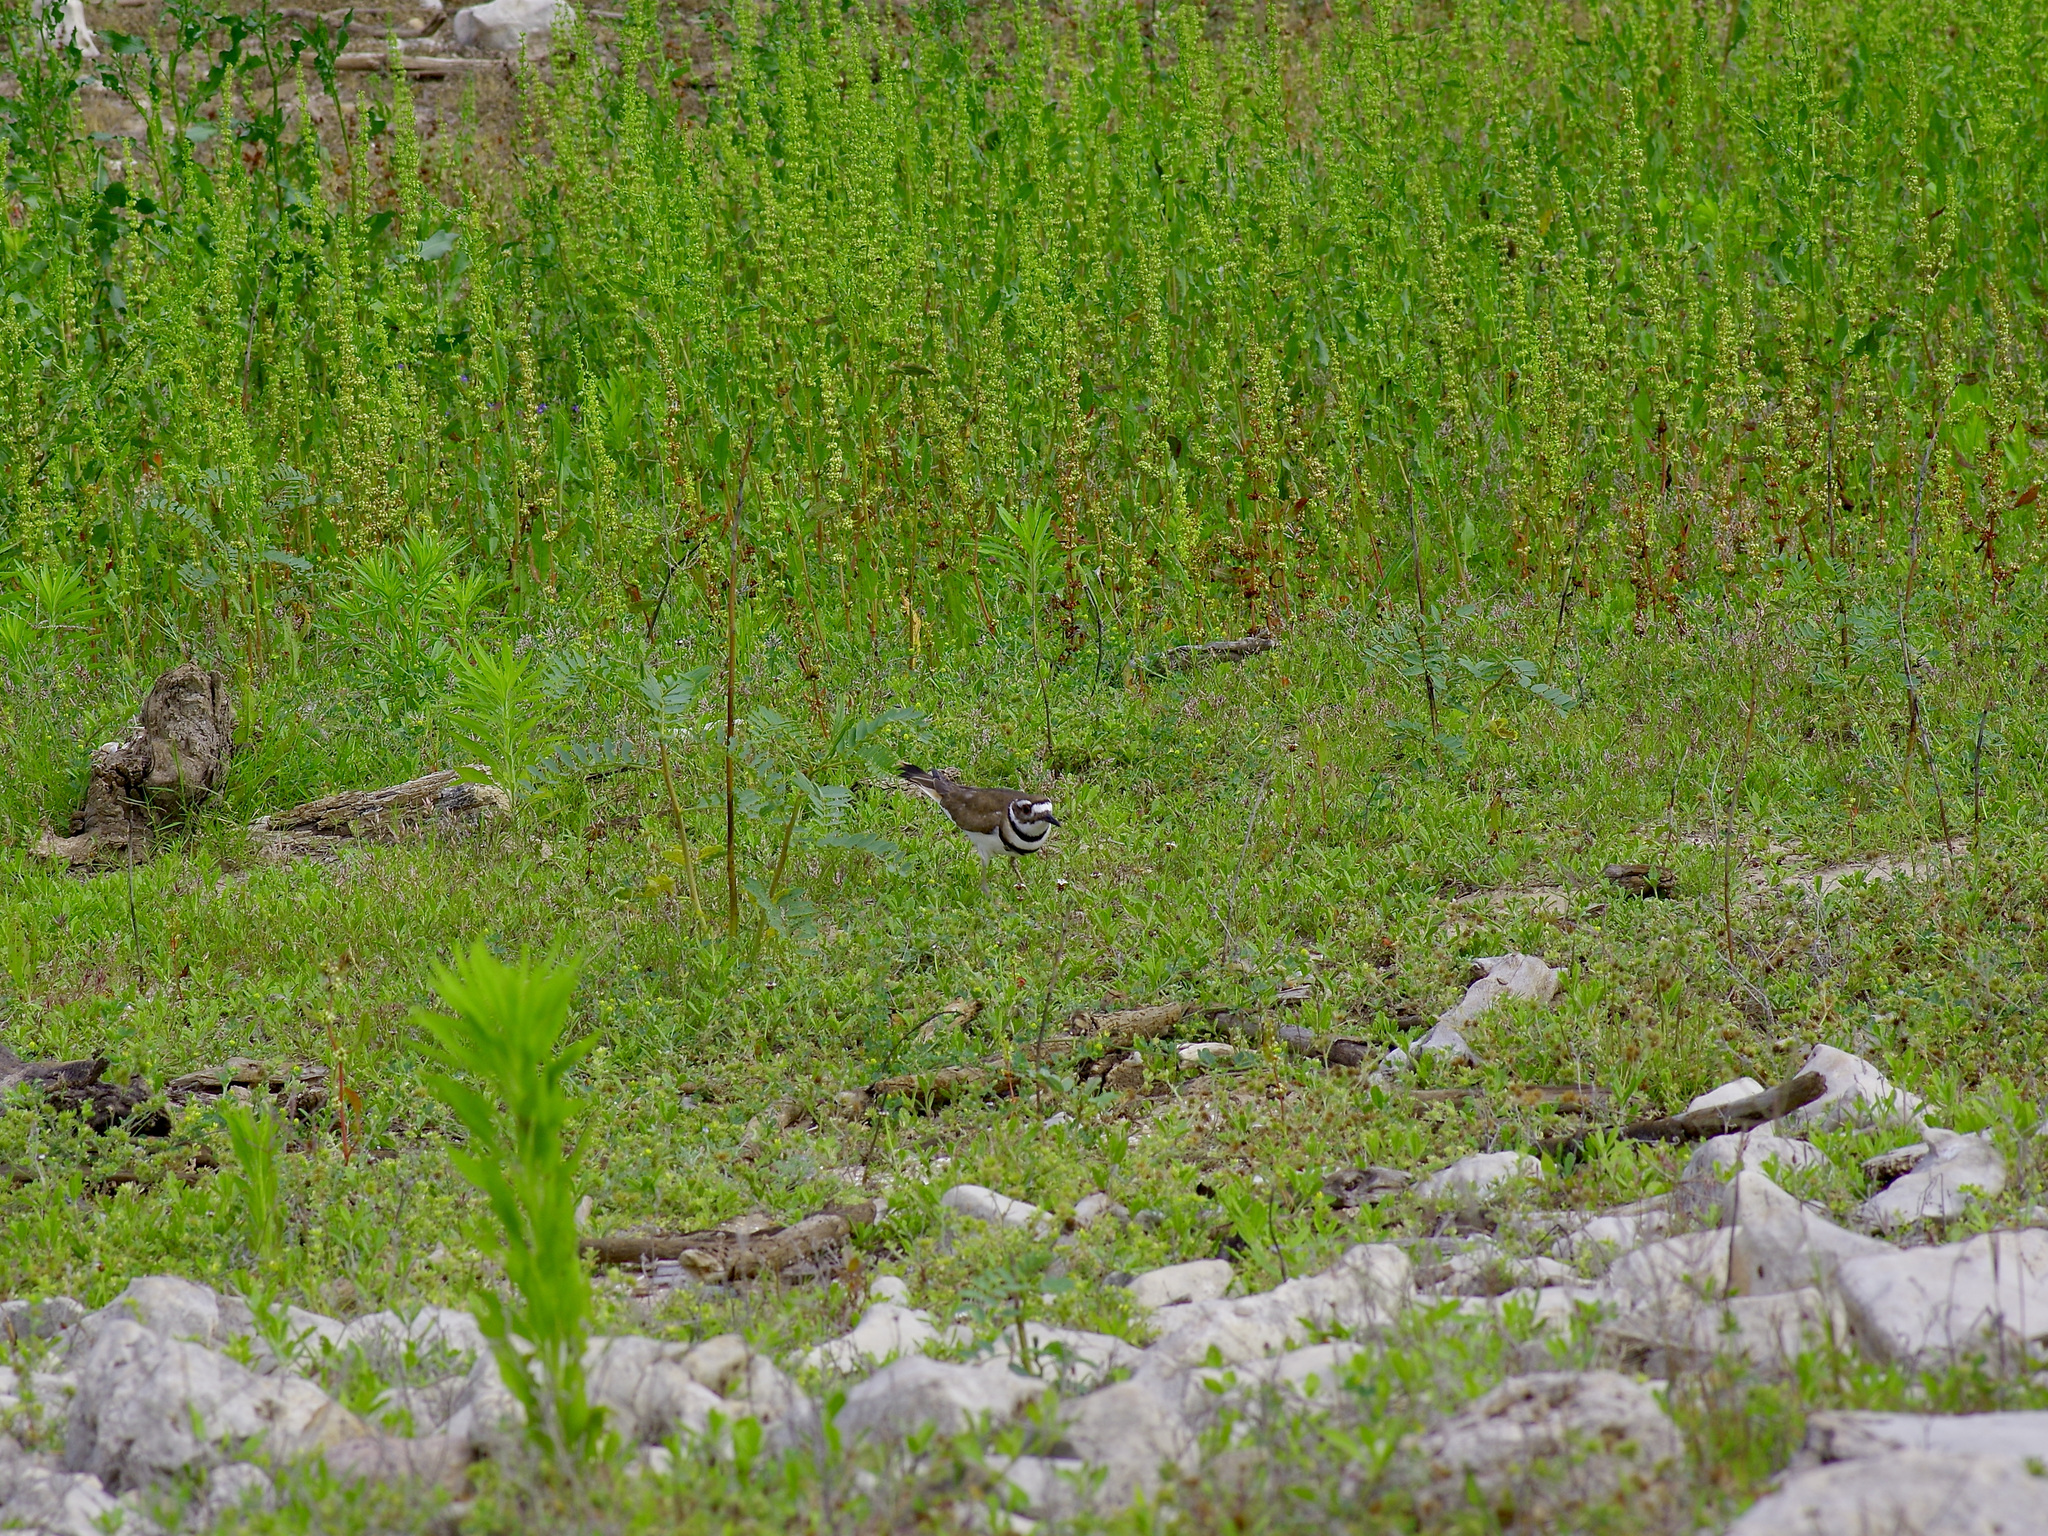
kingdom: Animalia
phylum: Chordata
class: Aves
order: Charadriiformes
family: Charadriidae
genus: Charadrius
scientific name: Charadrius vociferus
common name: Killdeer
